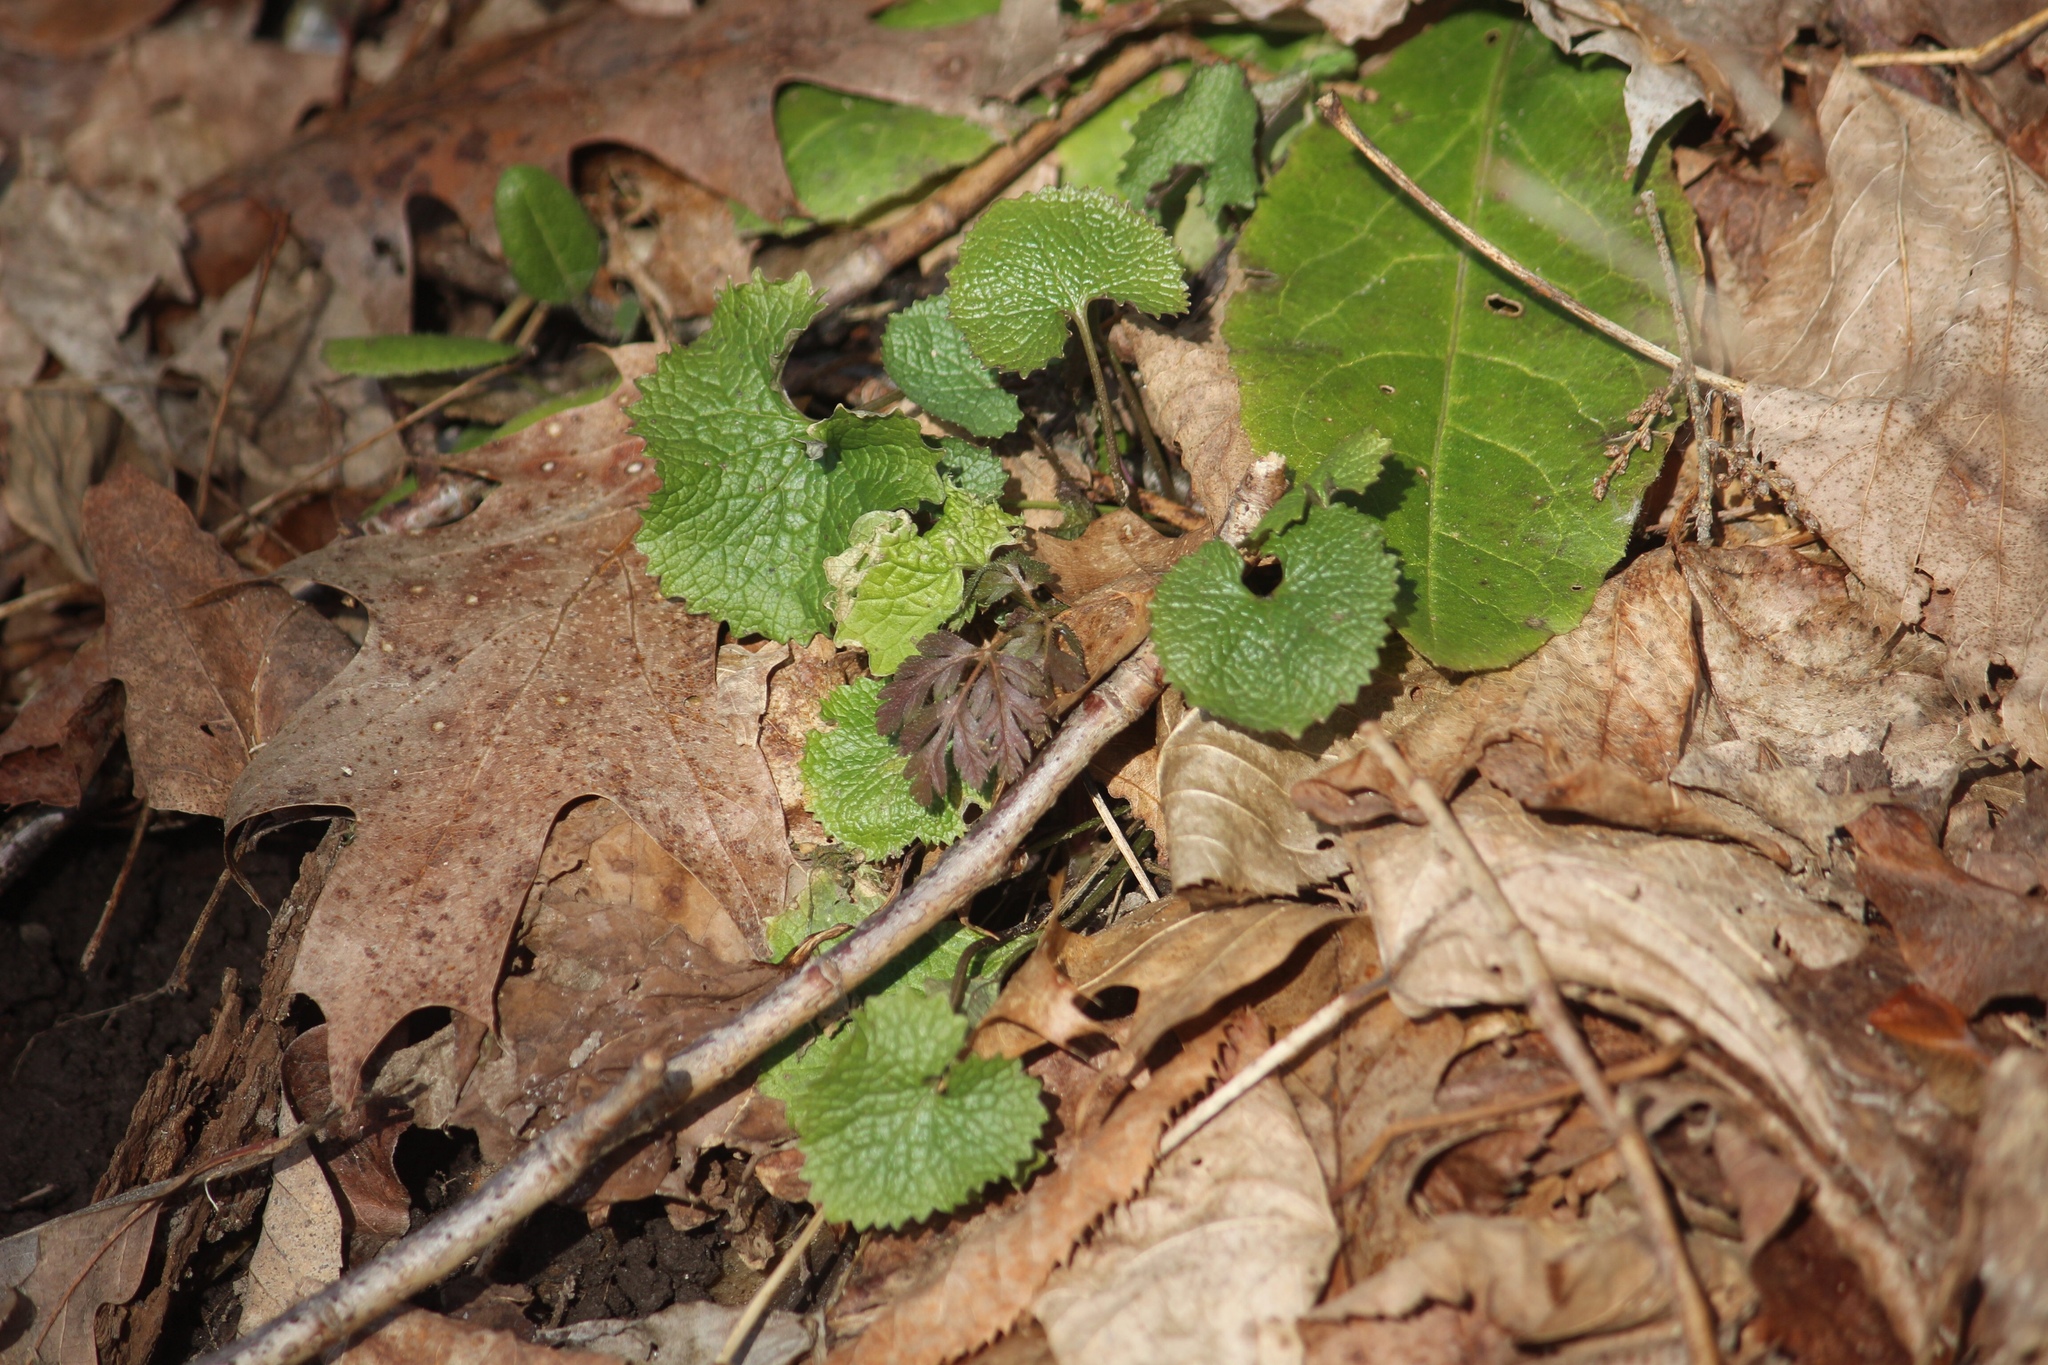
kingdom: Plantae
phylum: Tracheophyta
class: Magnoliopsida
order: Brassicales
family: Brassicaceae
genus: Alliaria
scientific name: Alliaria petiolata
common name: Garlic mustard
